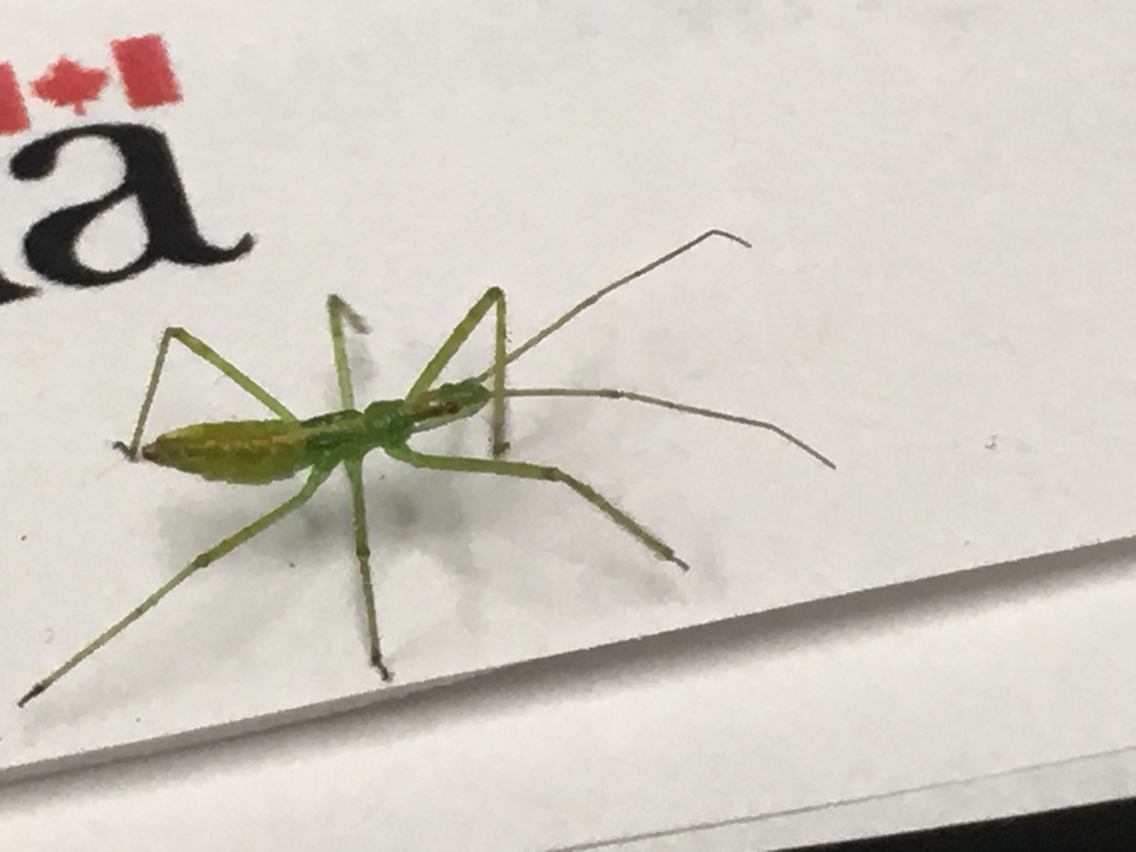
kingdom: Animalia
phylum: Arthropoda
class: Insecta
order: Hemiptera
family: Reduviidae
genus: Zelus
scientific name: Zelus luridus
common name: Pale green assassin bug
